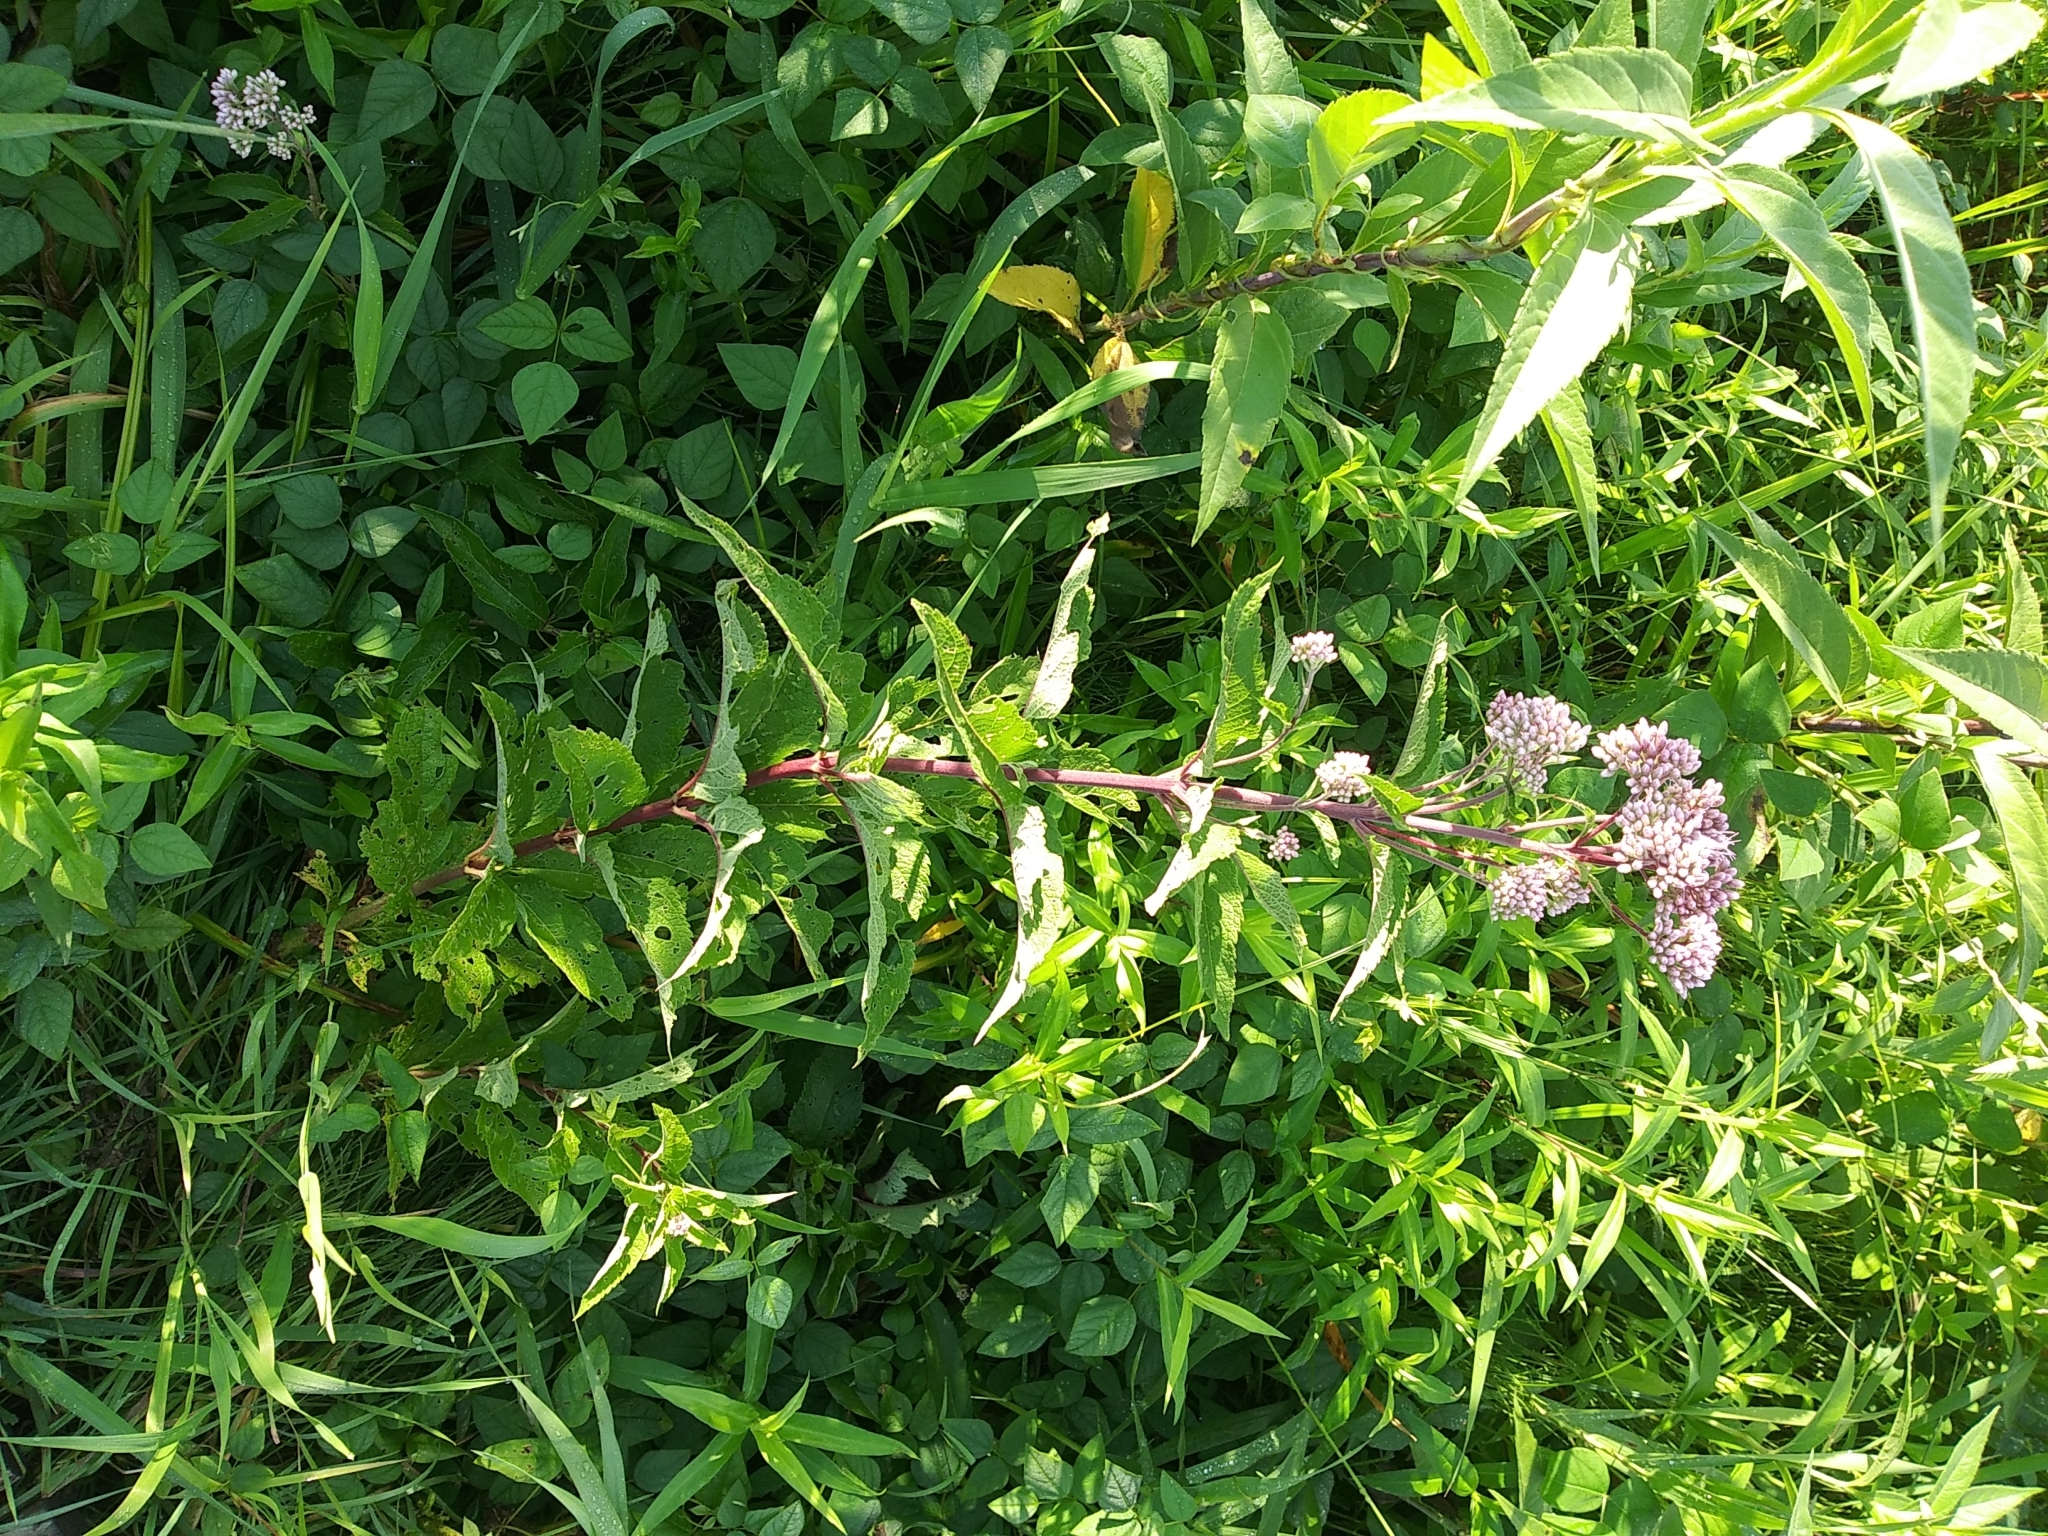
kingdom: Plantae
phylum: Tracheophyta
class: Magnoliopsida
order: Asterales
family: Asteraceae
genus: Eutrochium
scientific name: Eutrochium maculatum
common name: Spotted joe pye weed
